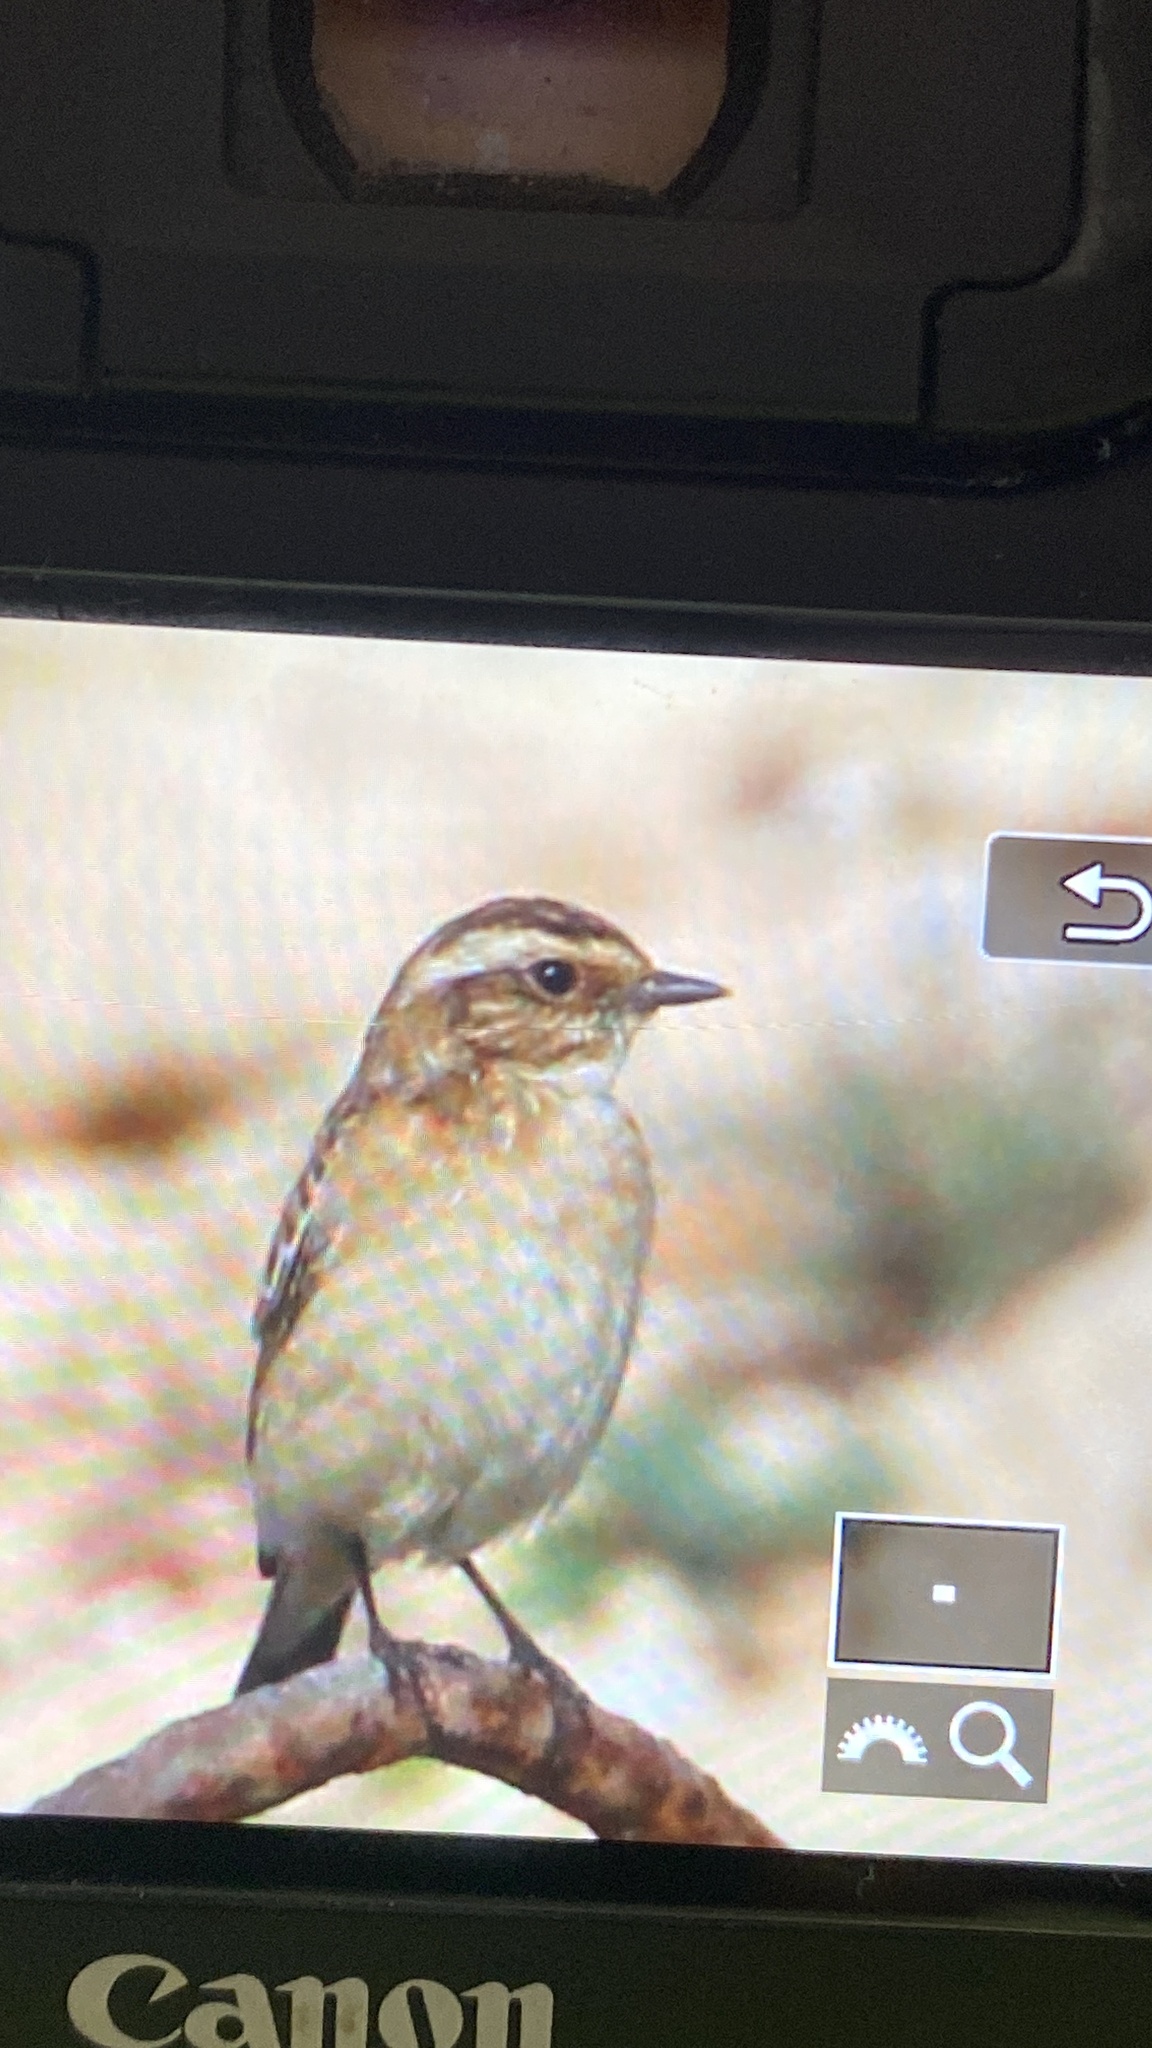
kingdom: Animalia
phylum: Chordata
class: Aves
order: Passeriformes
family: Muscicapidae
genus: Saxicola
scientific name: Saxicola rubetra
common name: Whinchat
